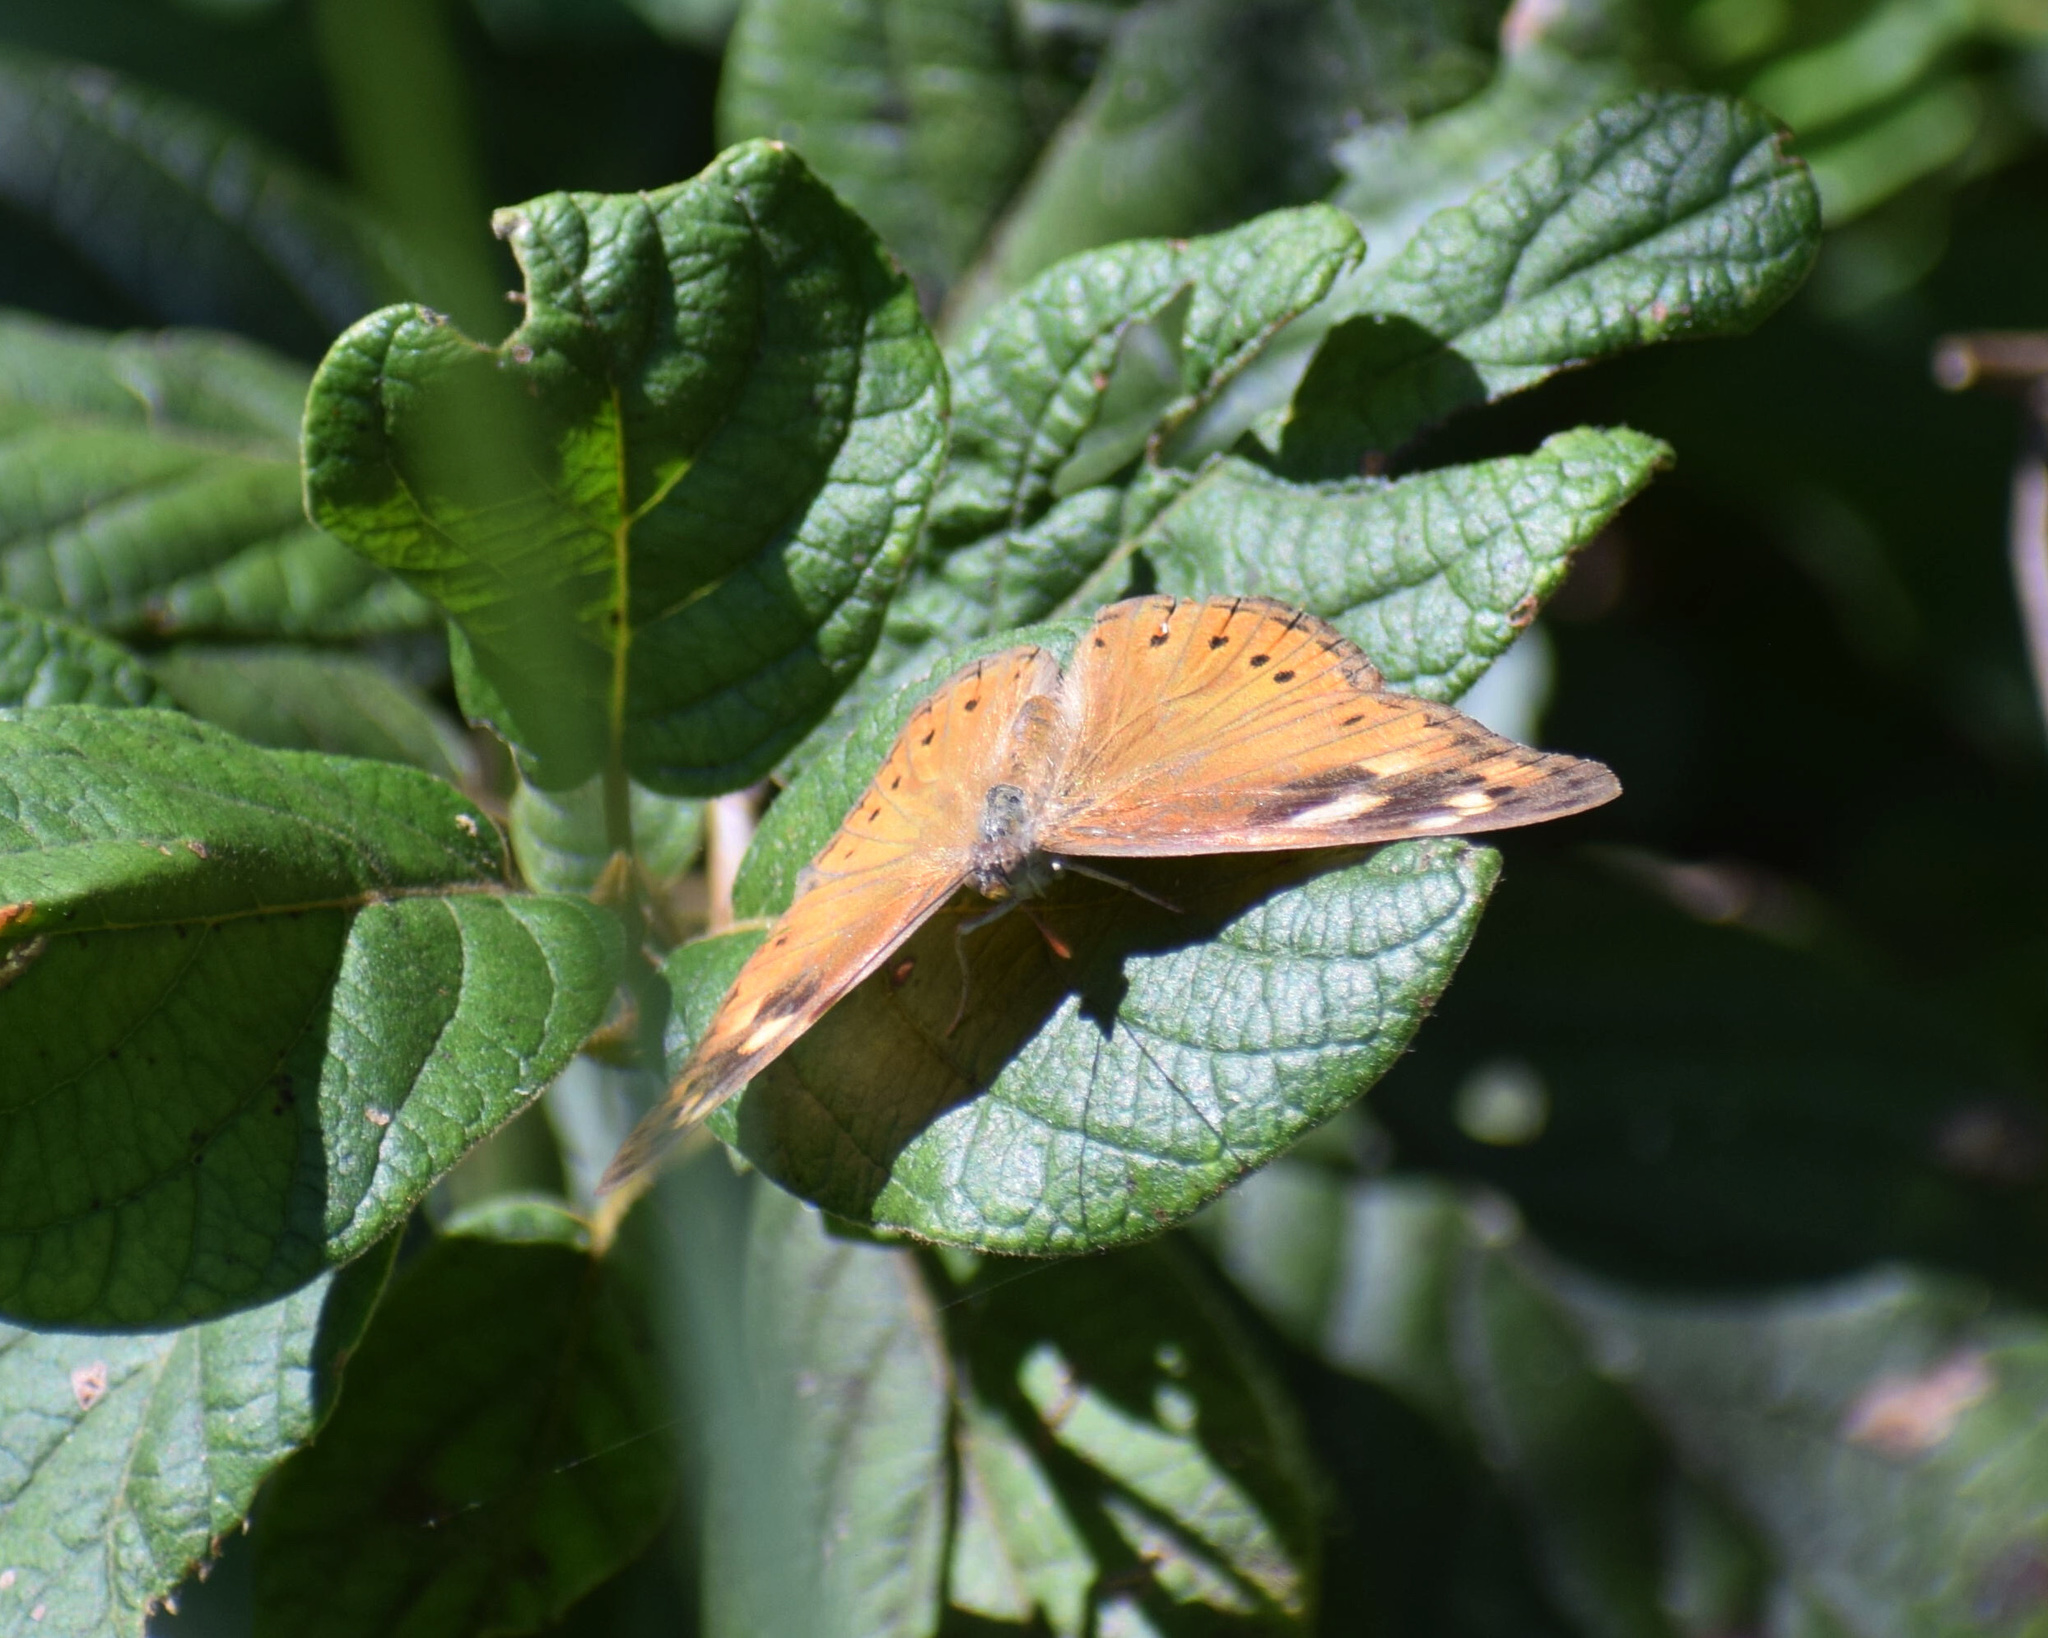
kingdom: Animalia
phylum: Arthropoda
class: Insecta
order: Lepidoptera
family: Nymphalidae
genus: Asterope
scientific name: Asterope boisduvali
